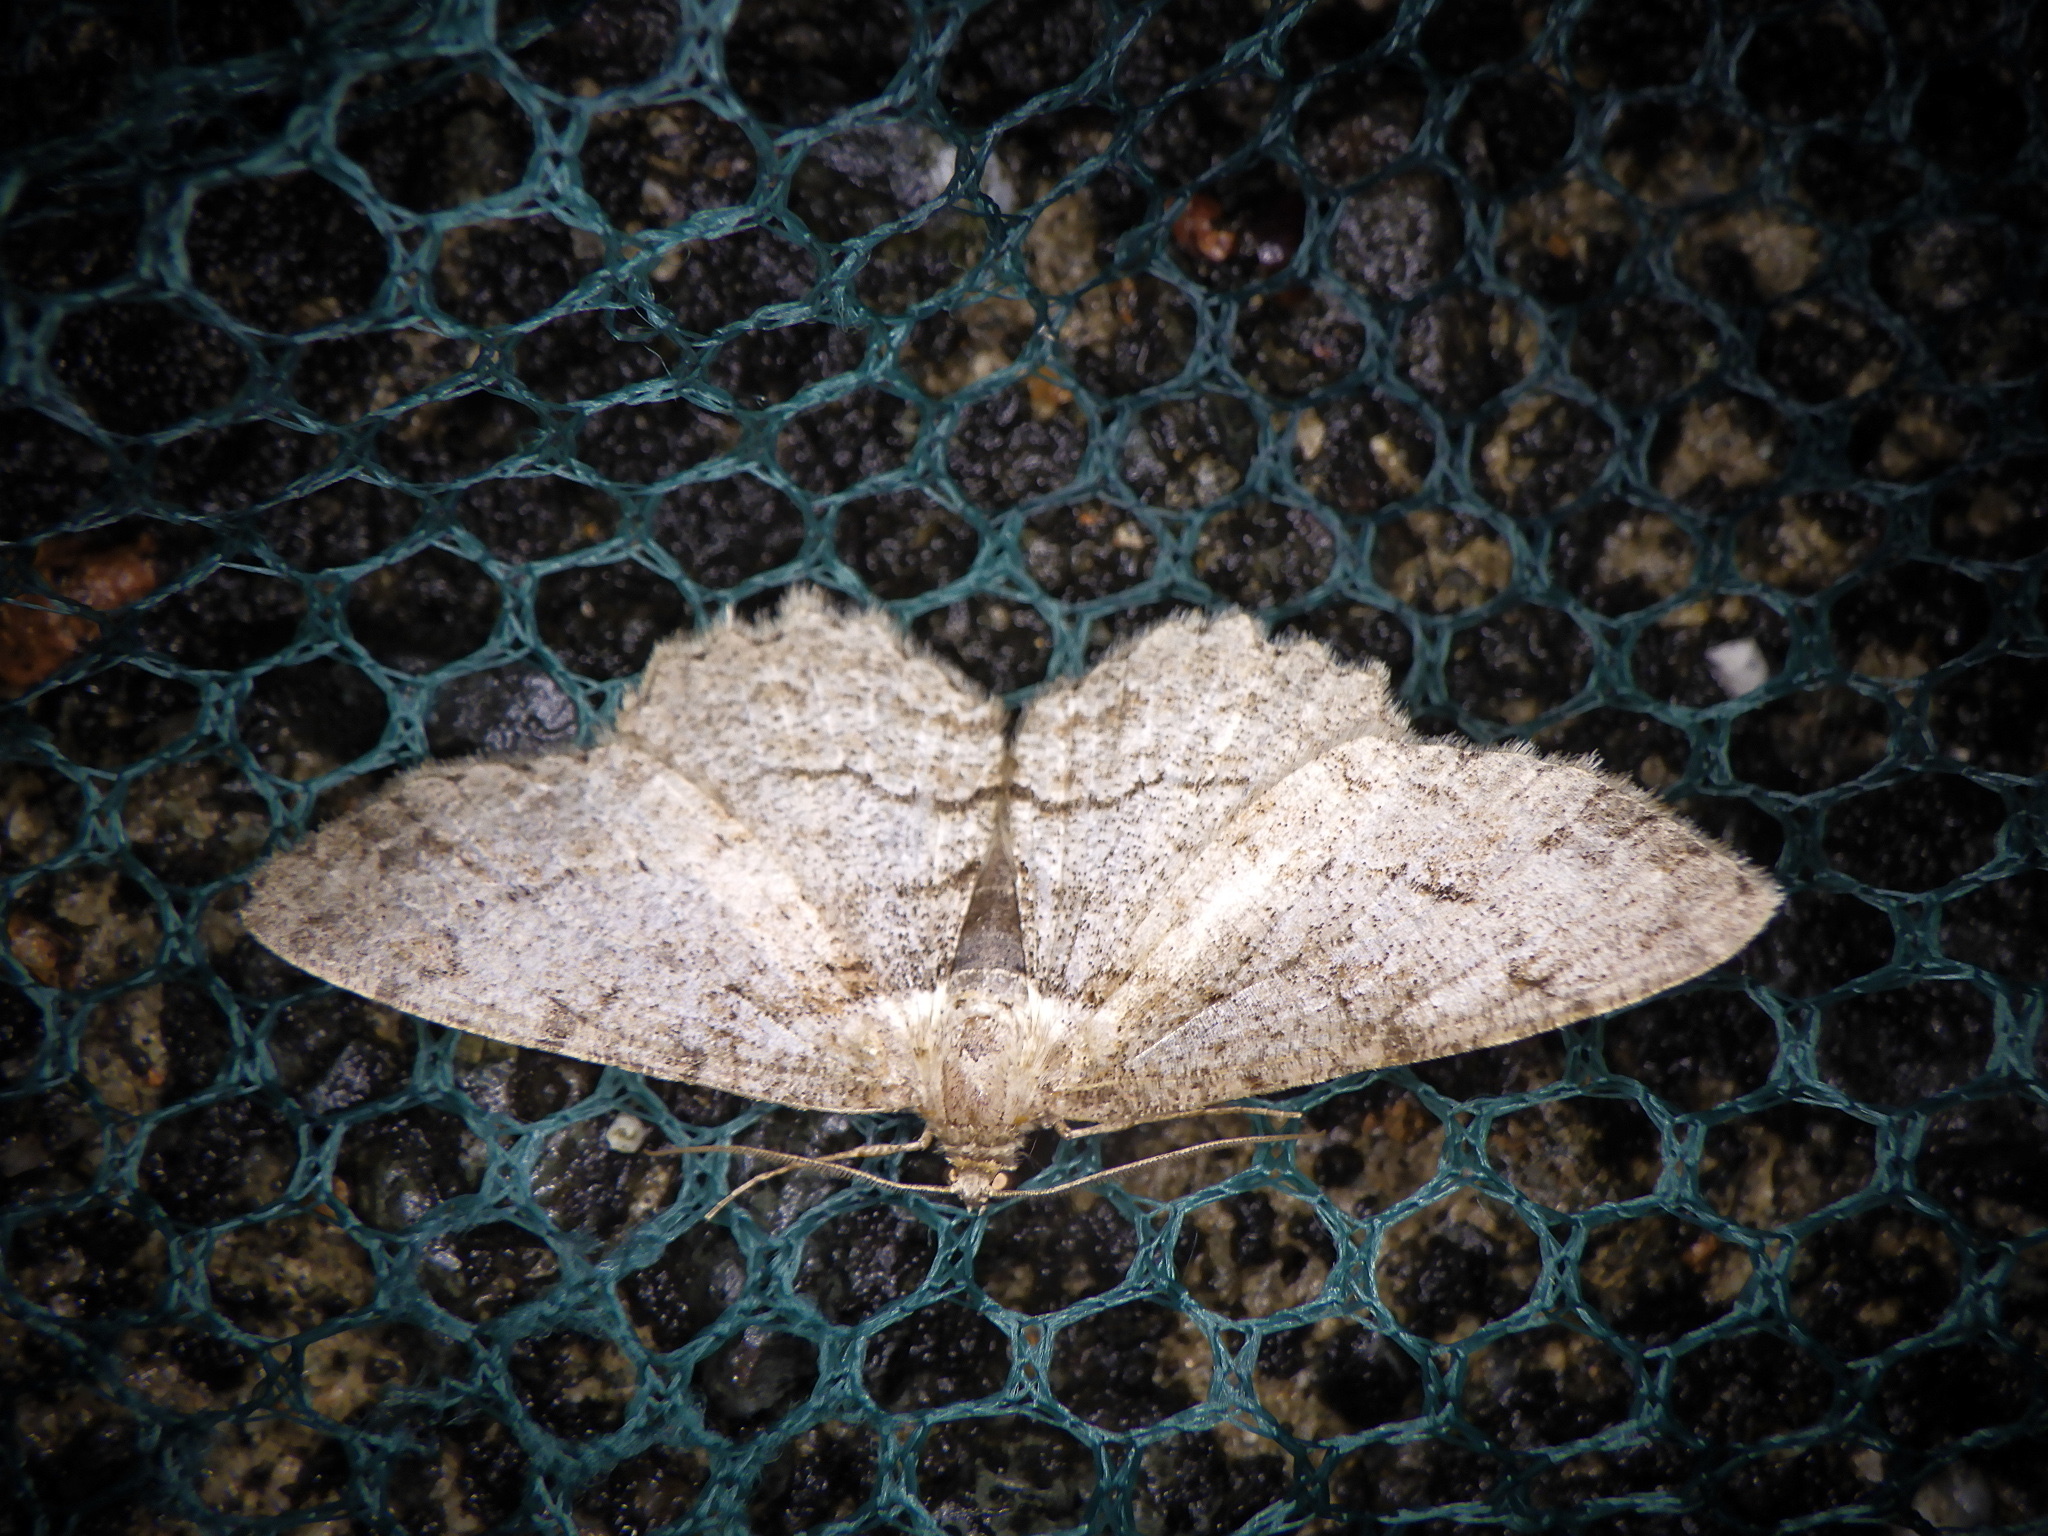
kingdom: Animalia
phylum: Arthropoda
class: Insecta
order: Lepidoptera
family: Geometridae
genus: Paradarisa
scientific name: Paradarisa chloauges
